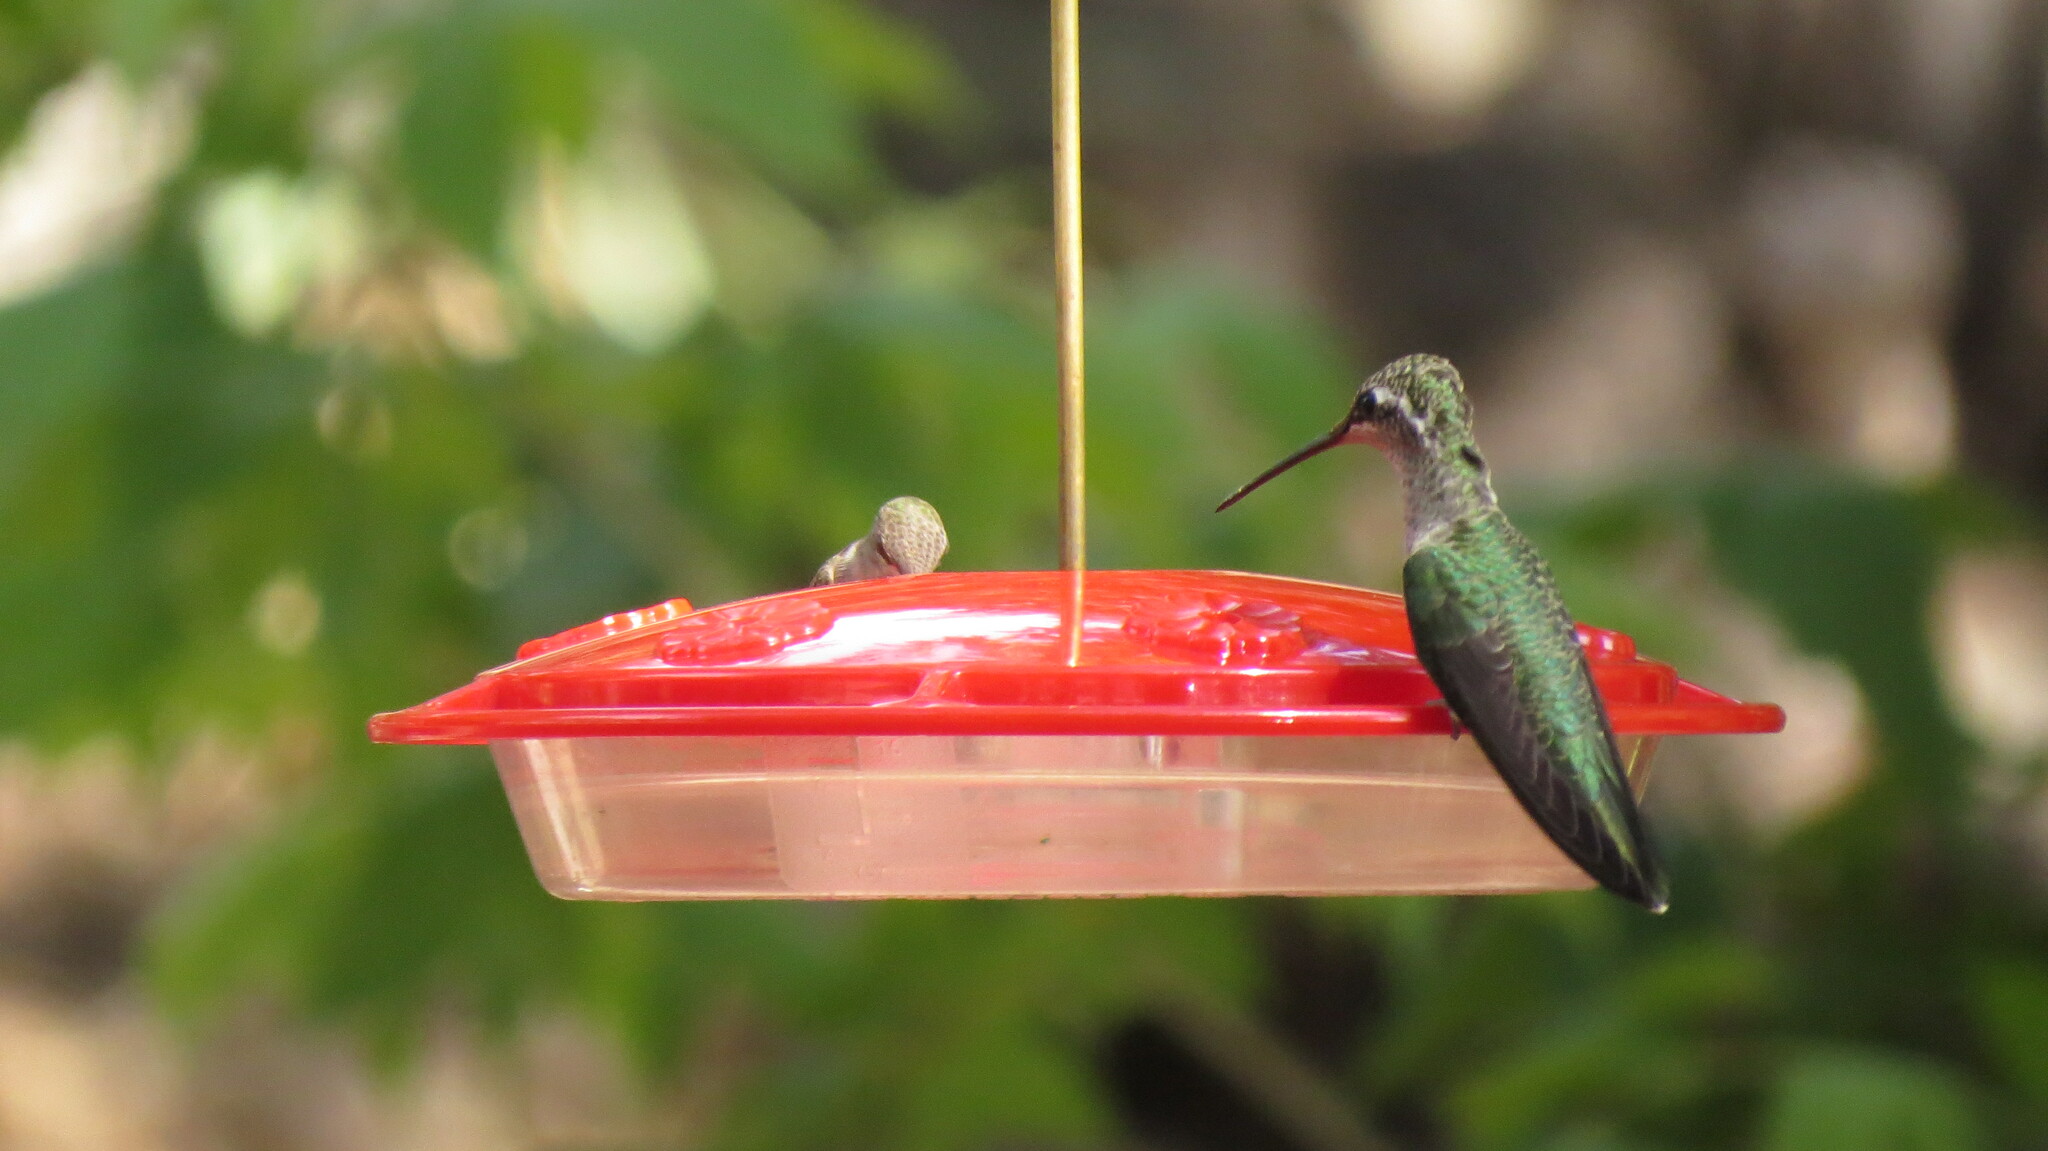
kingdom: Animalia
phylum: Chordata
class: Aves
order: Apodiformes
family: Trochilidae
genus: Eugenes
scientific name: Eugenes fulgens
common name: Magnificent hummingbird
